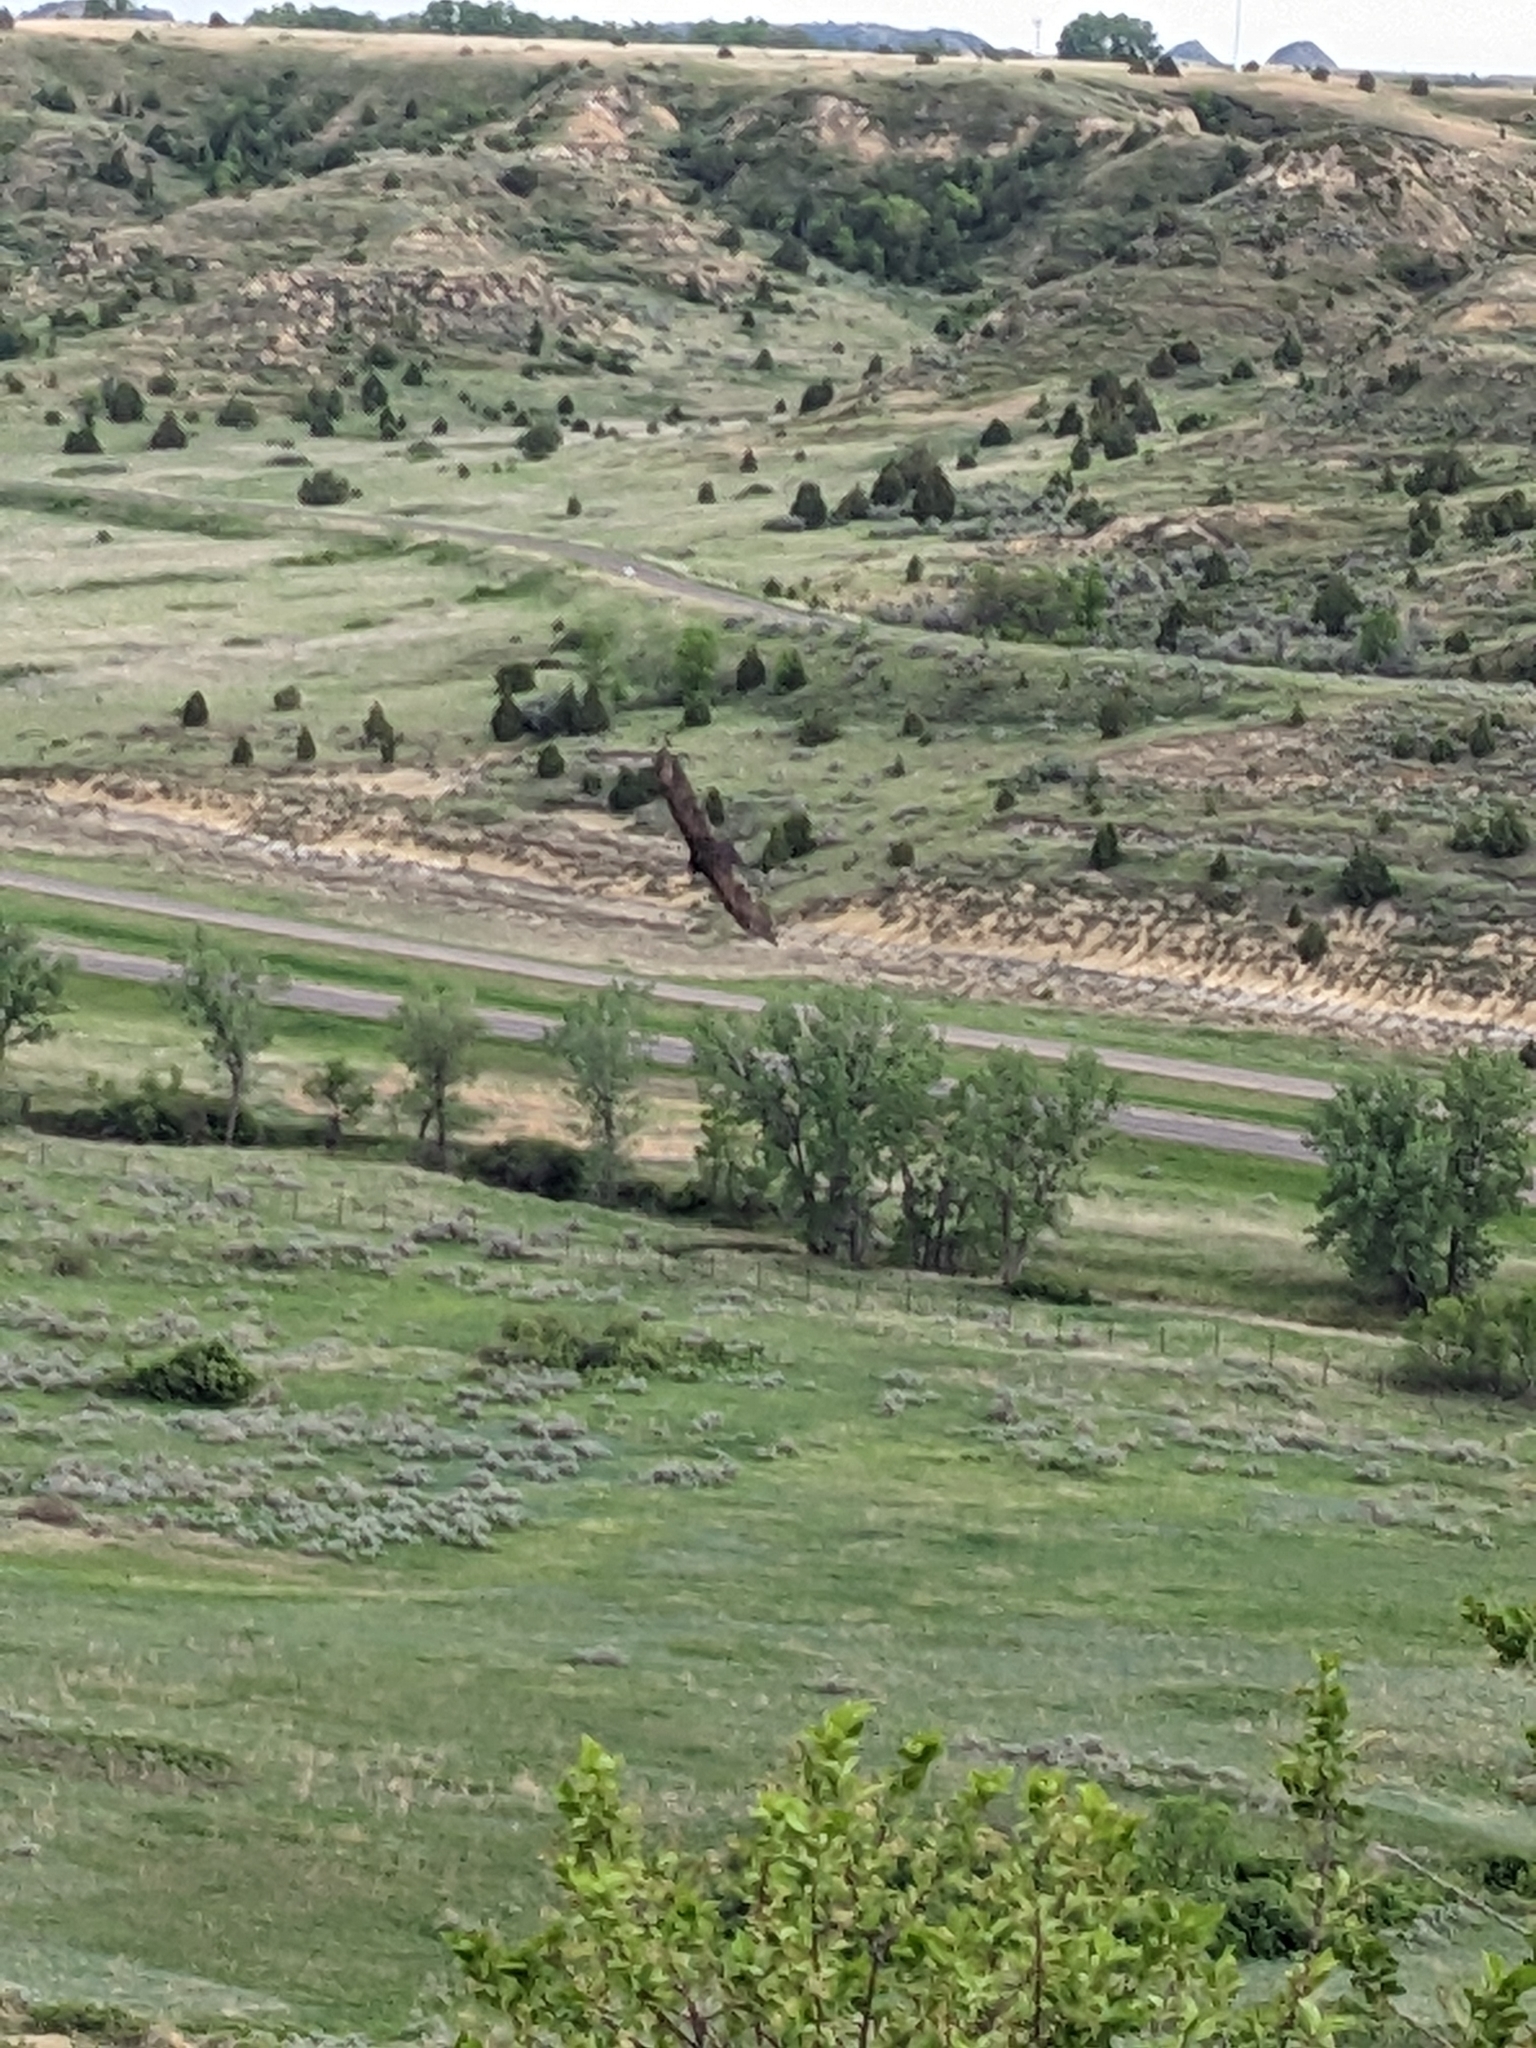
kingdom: Animalia
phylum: Chordata
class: Aves
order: Accipitriformes
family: Cathartidae
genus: Cathartes
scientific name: Cathartes aura
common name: Turkey vulture
